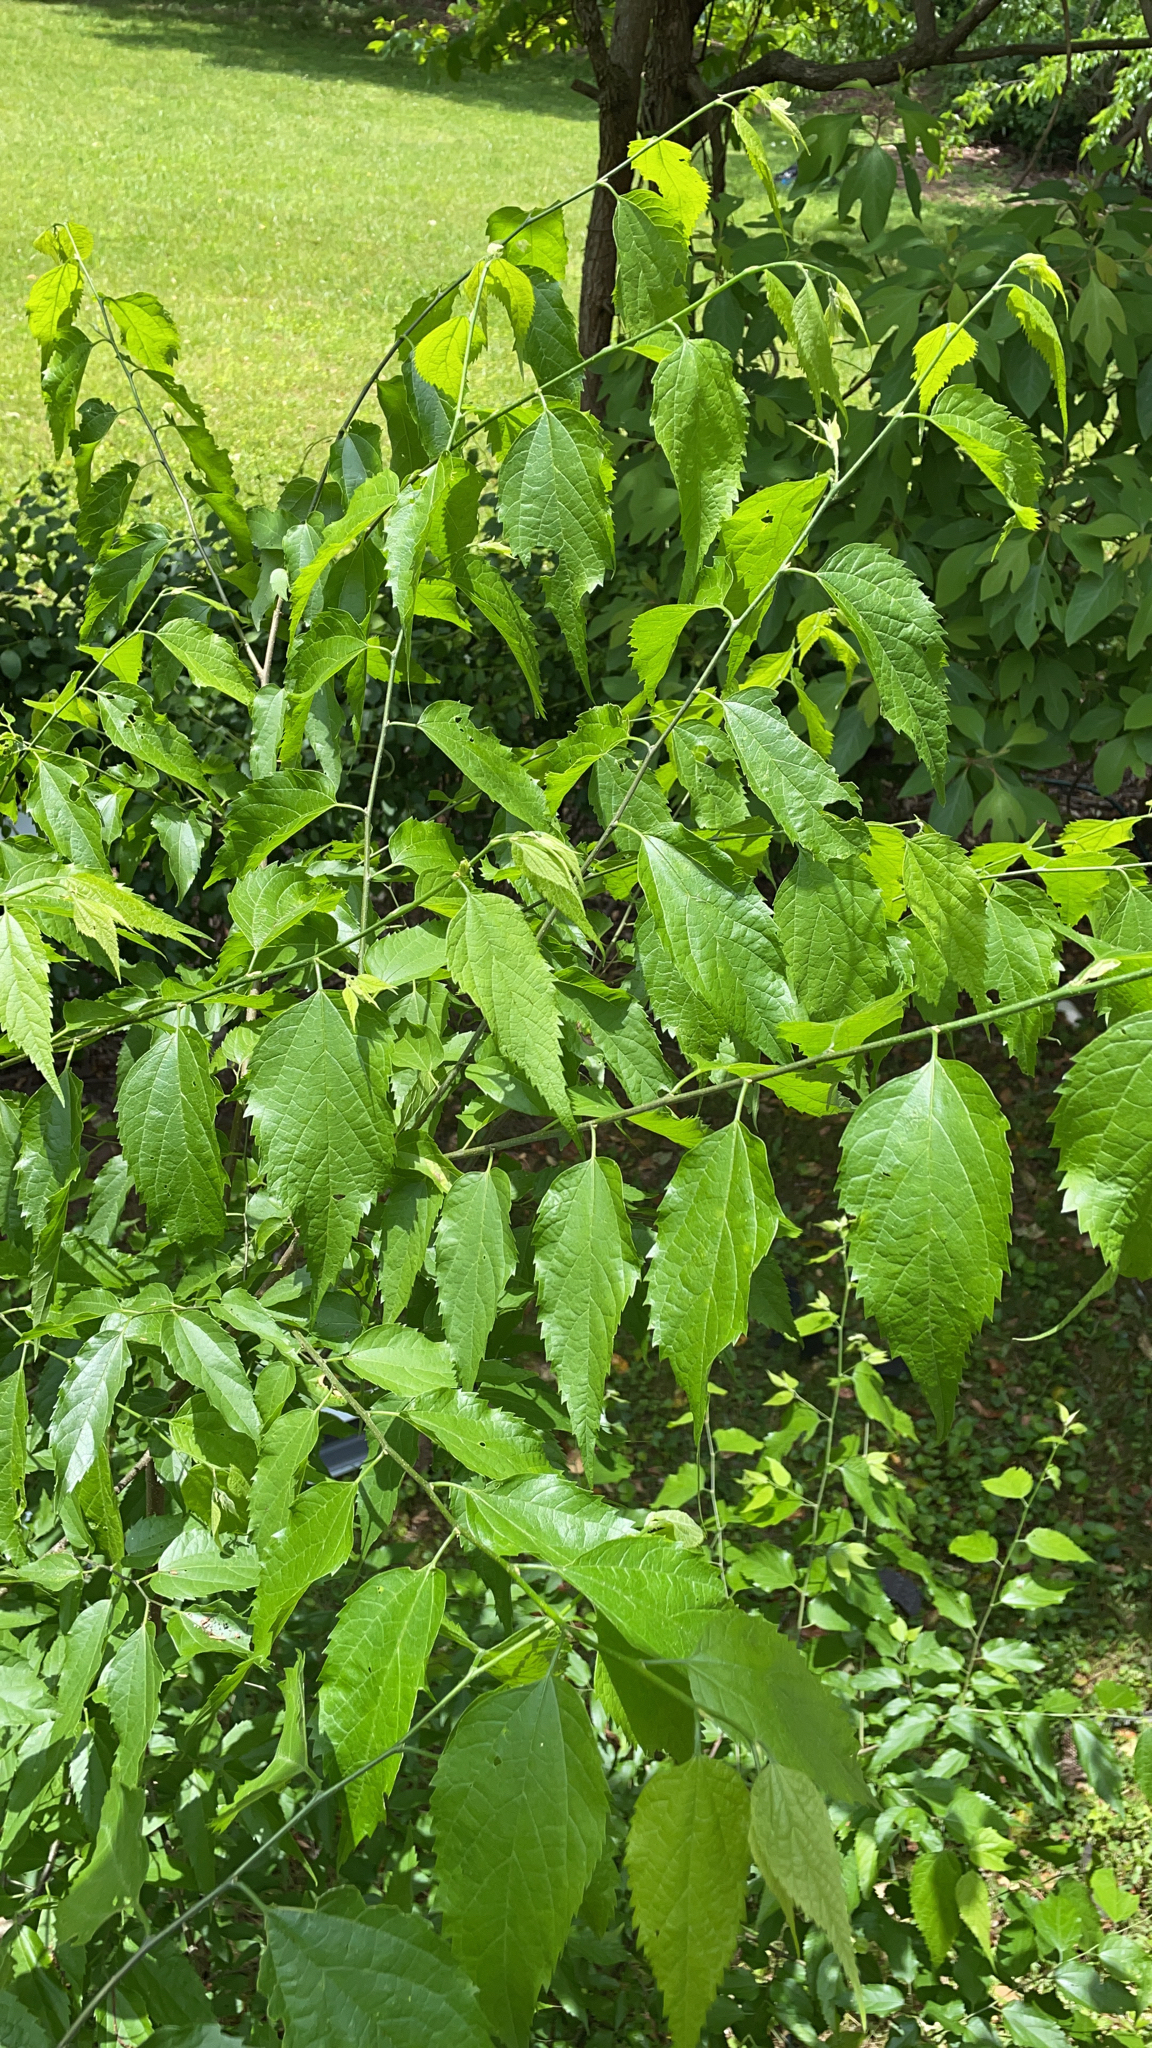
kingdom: Plantae
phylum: Tracheophyta
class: Magnoliopsida
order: Rosales
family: Cannabaceae
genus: Celtis
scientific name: Celtis laevigata
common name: Sugarberry
